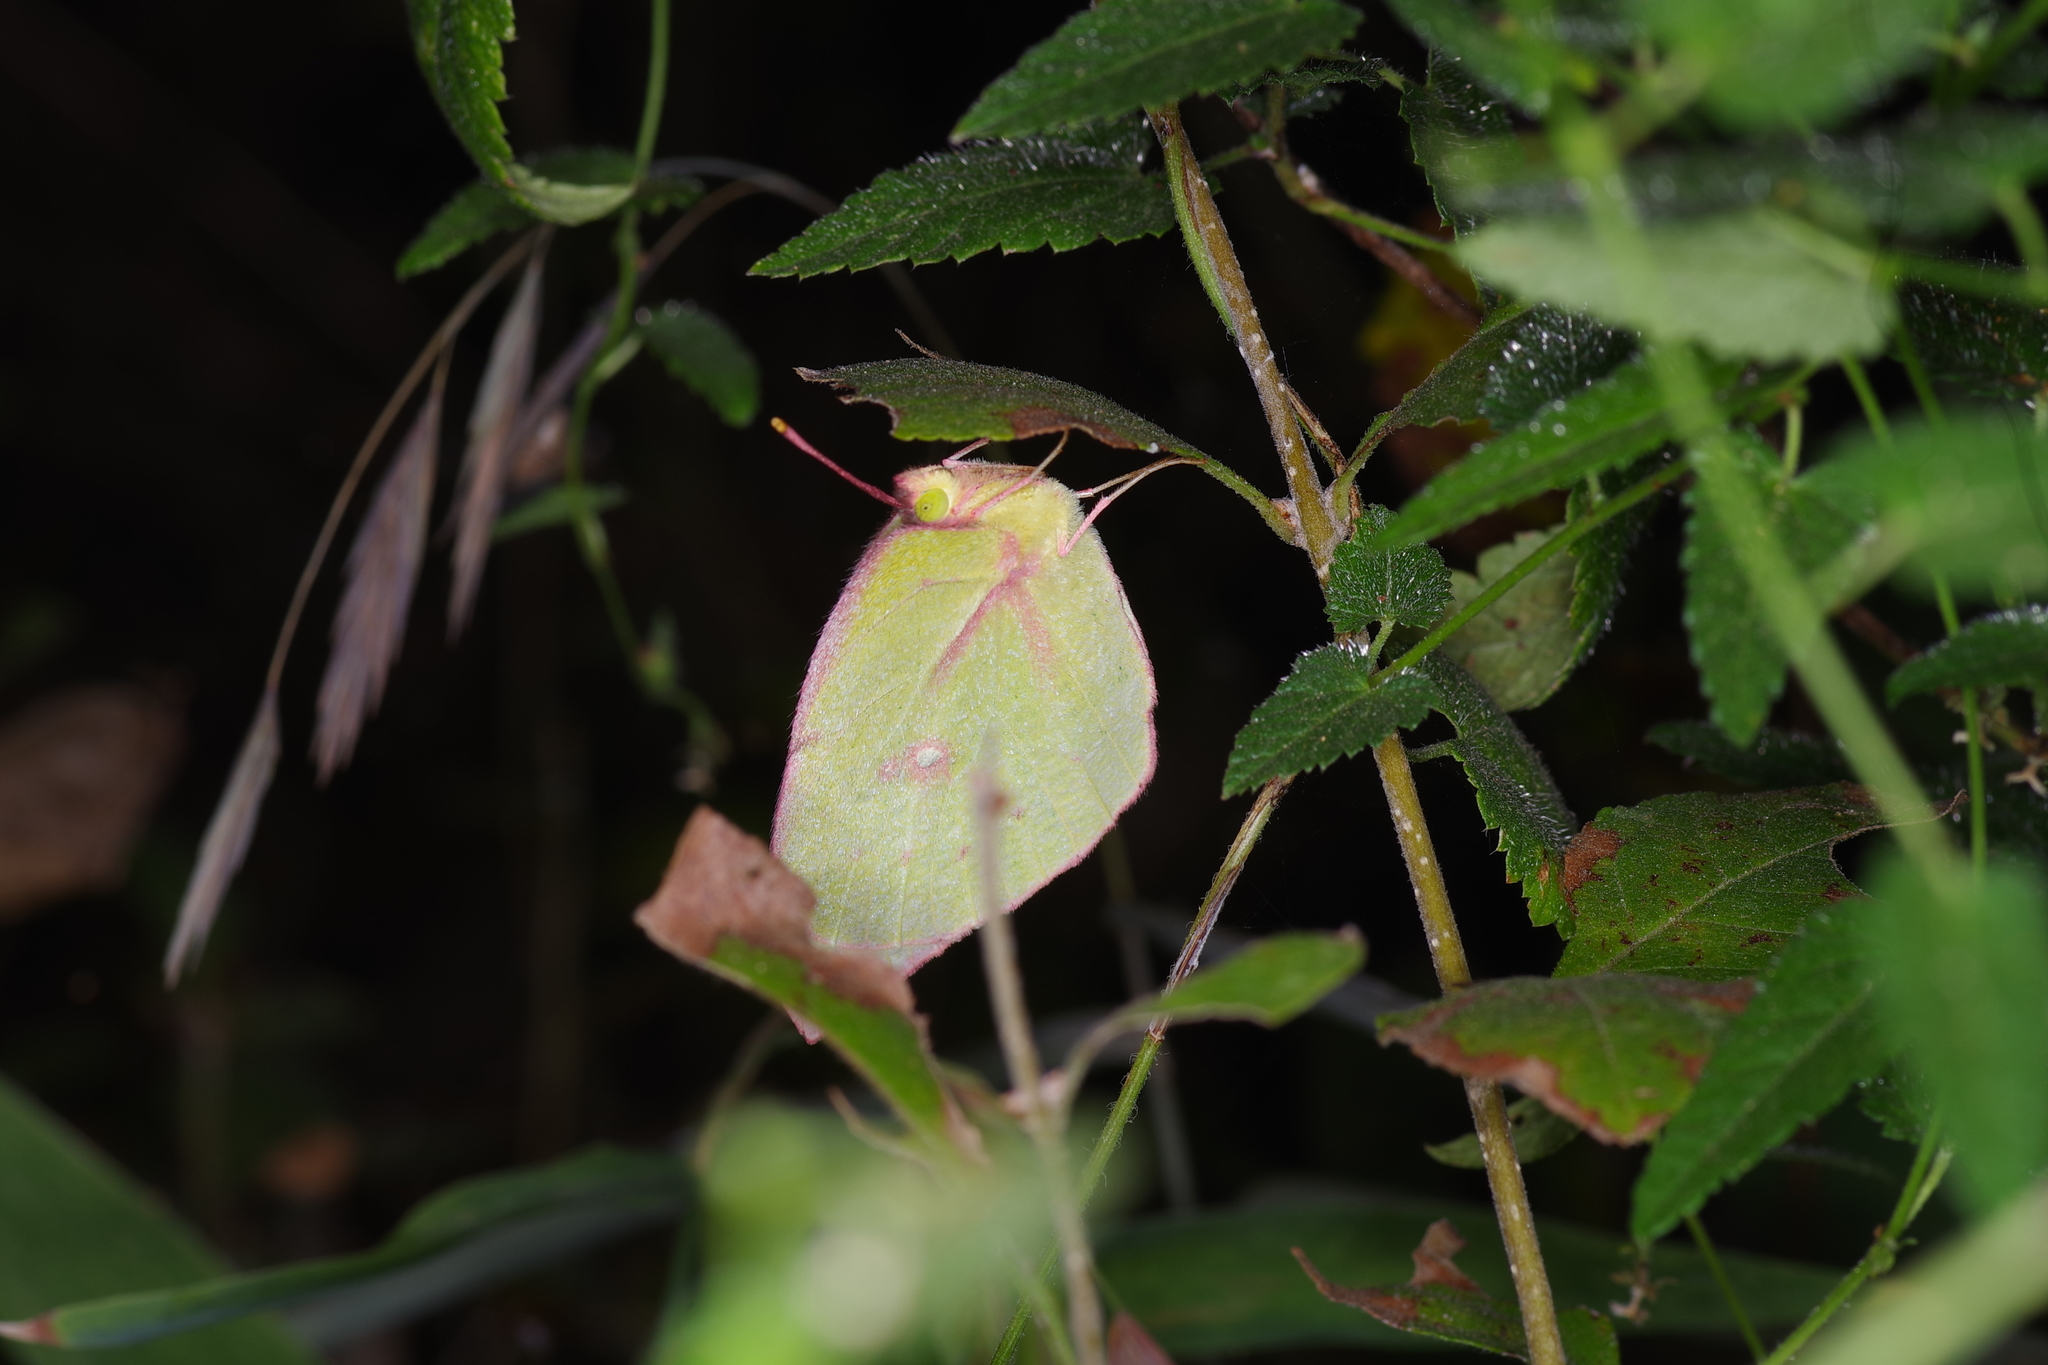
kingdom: Animalia
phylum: Arthropoda
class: Insecta
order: Lepidoptera
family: Pieridae
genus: Zerene
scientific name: Zerene cesonia
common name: Southern dogface
